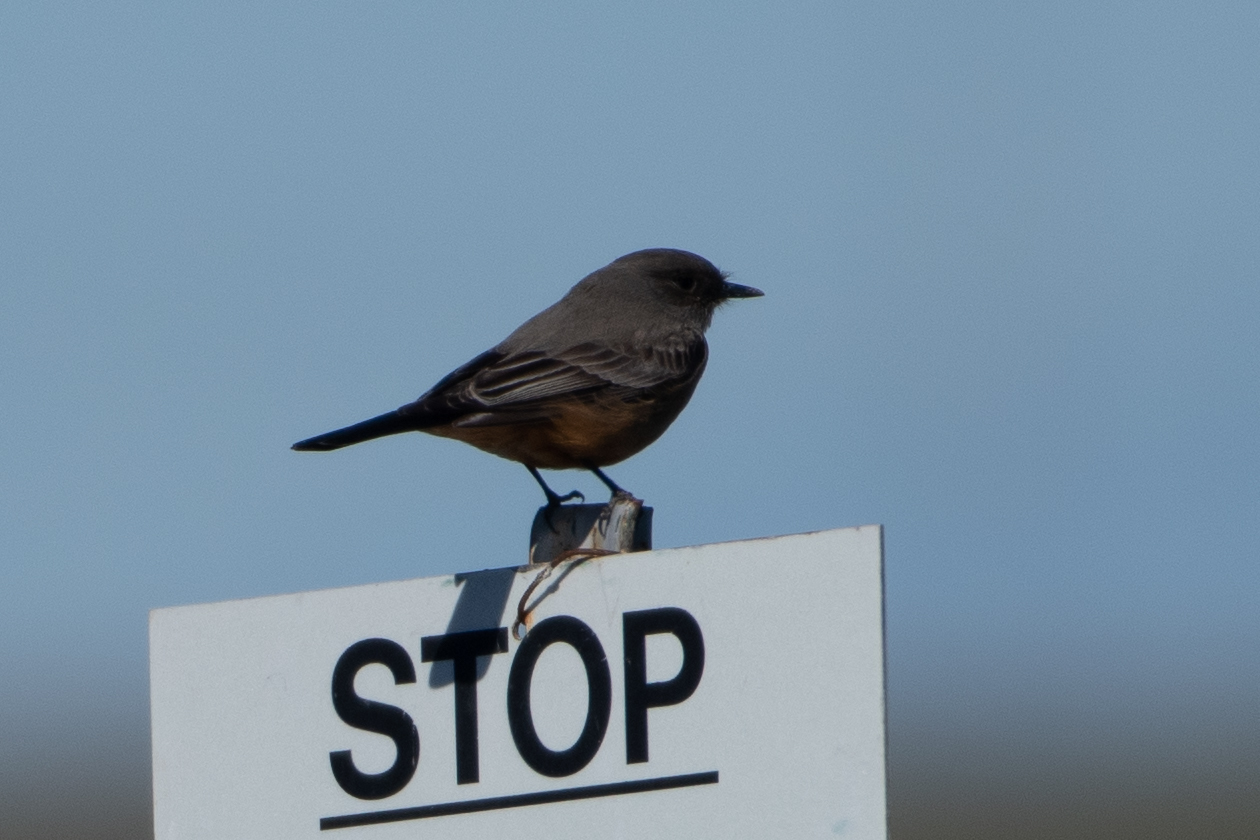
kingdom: Animalia
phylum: Chordata
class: Aves
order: Passeriformes
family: Tyrannidae
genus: Sayornis
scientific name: Sayornis saya
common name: Say's phoebe
